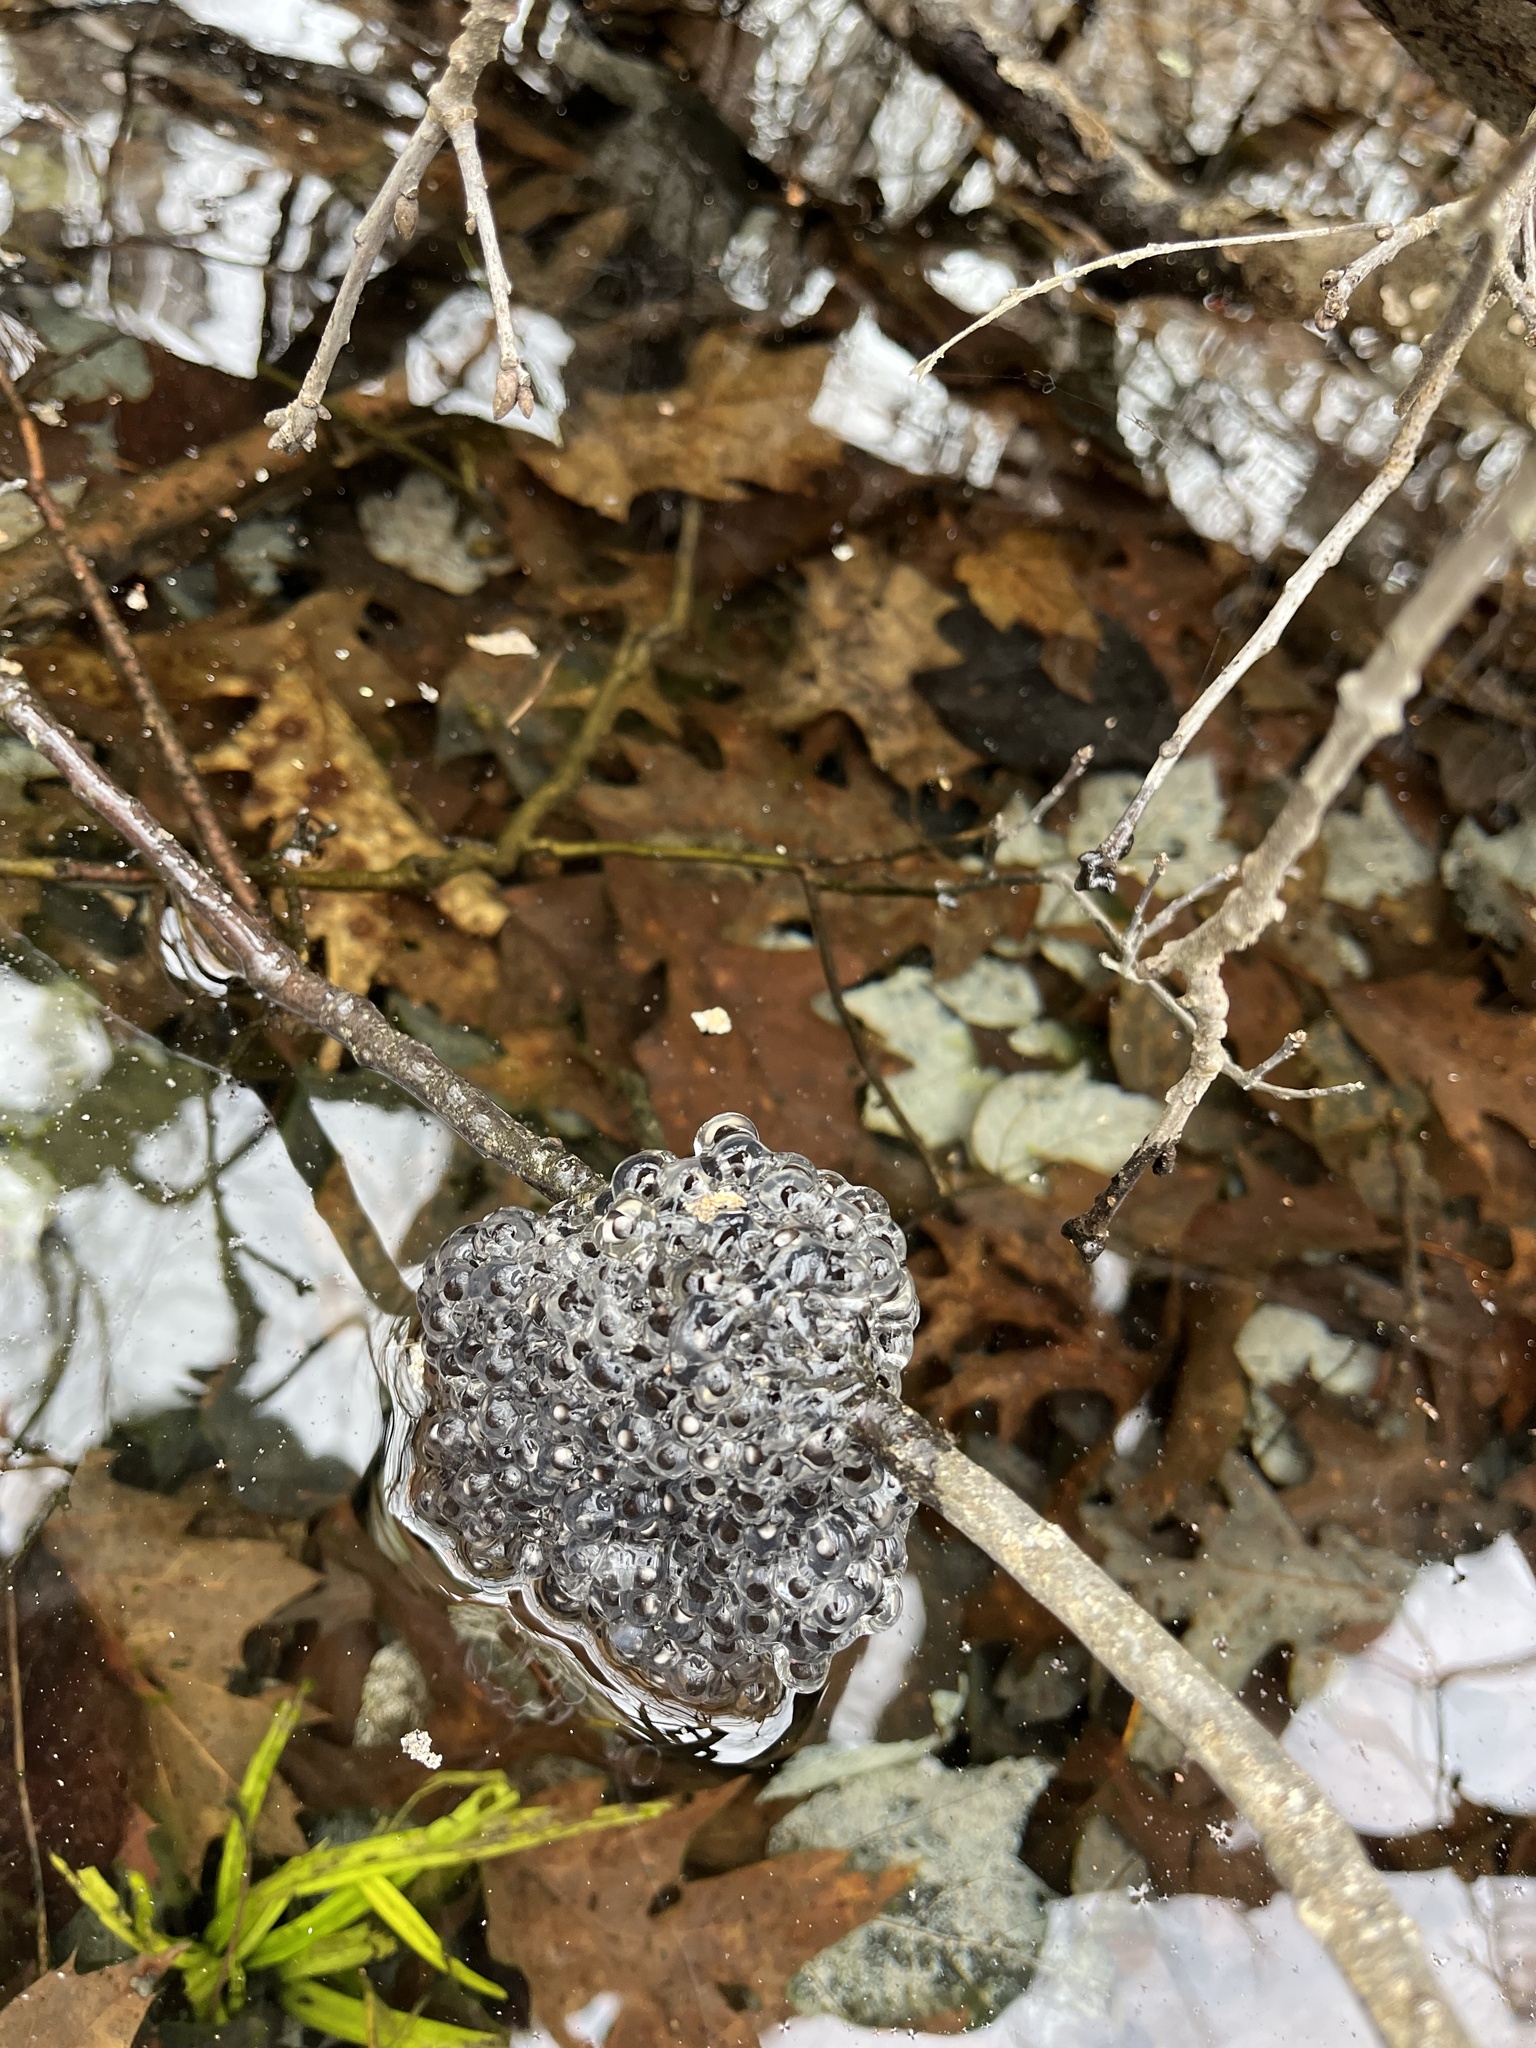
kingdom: Animalia
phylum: Chordata
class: Amphibia
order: Anura
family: Ranidae
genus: Lithobates
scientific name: Lithobates sylvaticus
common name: Wood frog
